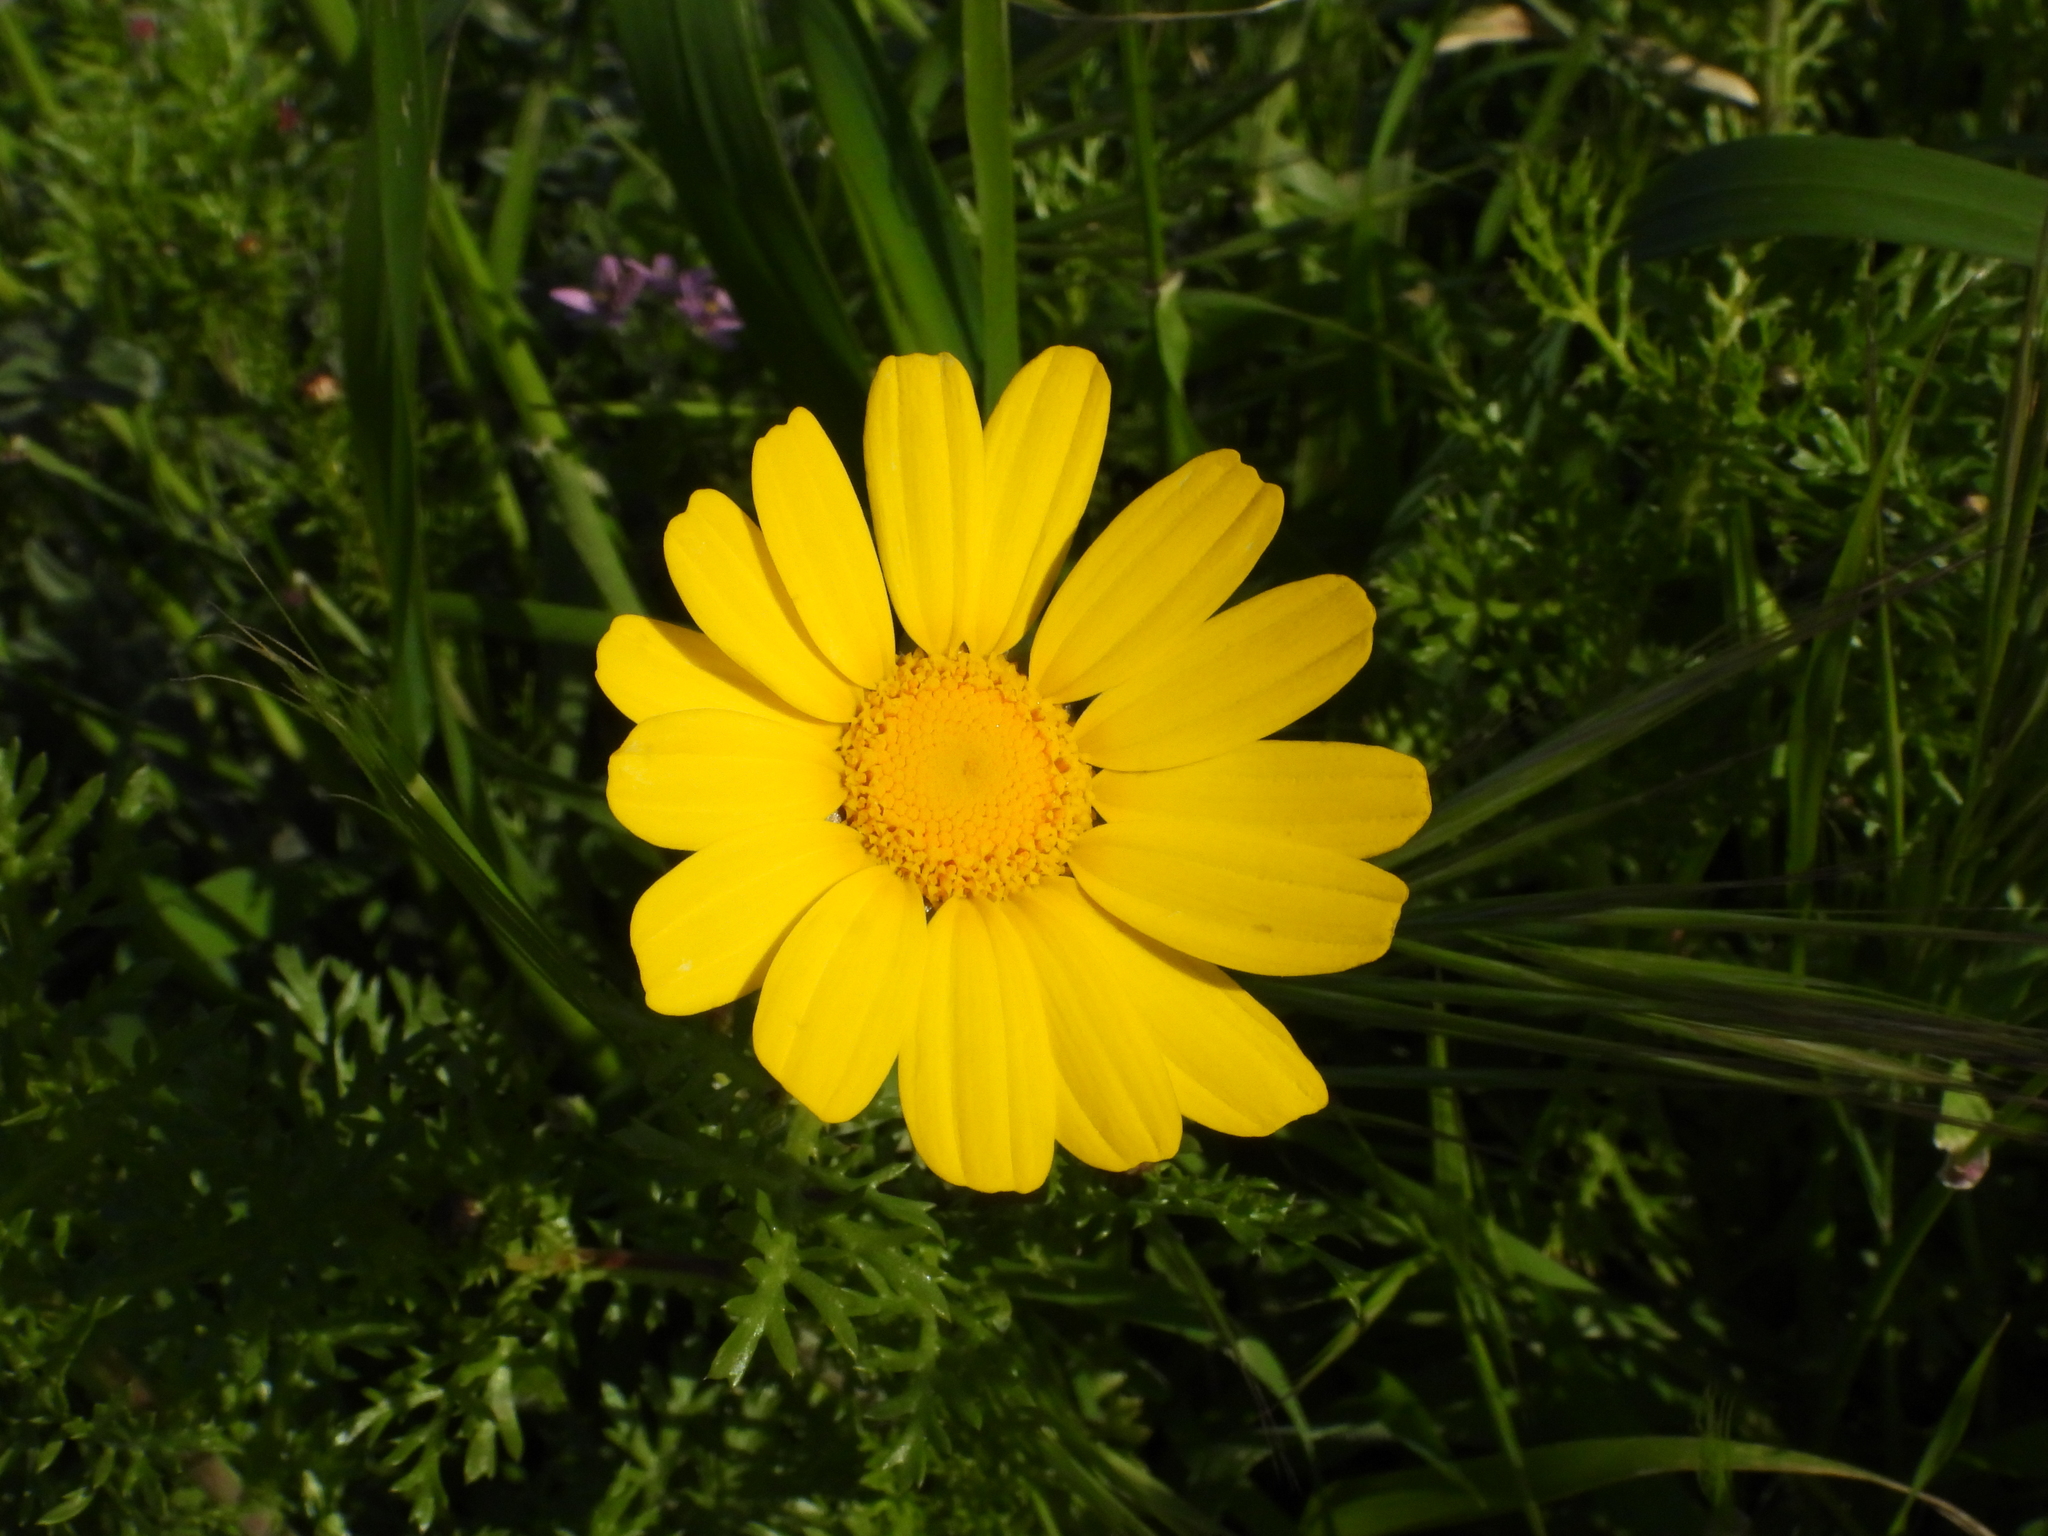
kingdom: Plantae
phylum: Tracheophyta
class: Magnoliopsida
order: Asterales
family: Asteraceae
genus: Glebionis
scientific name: Glebionis coronaria
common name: Crowndaisy
